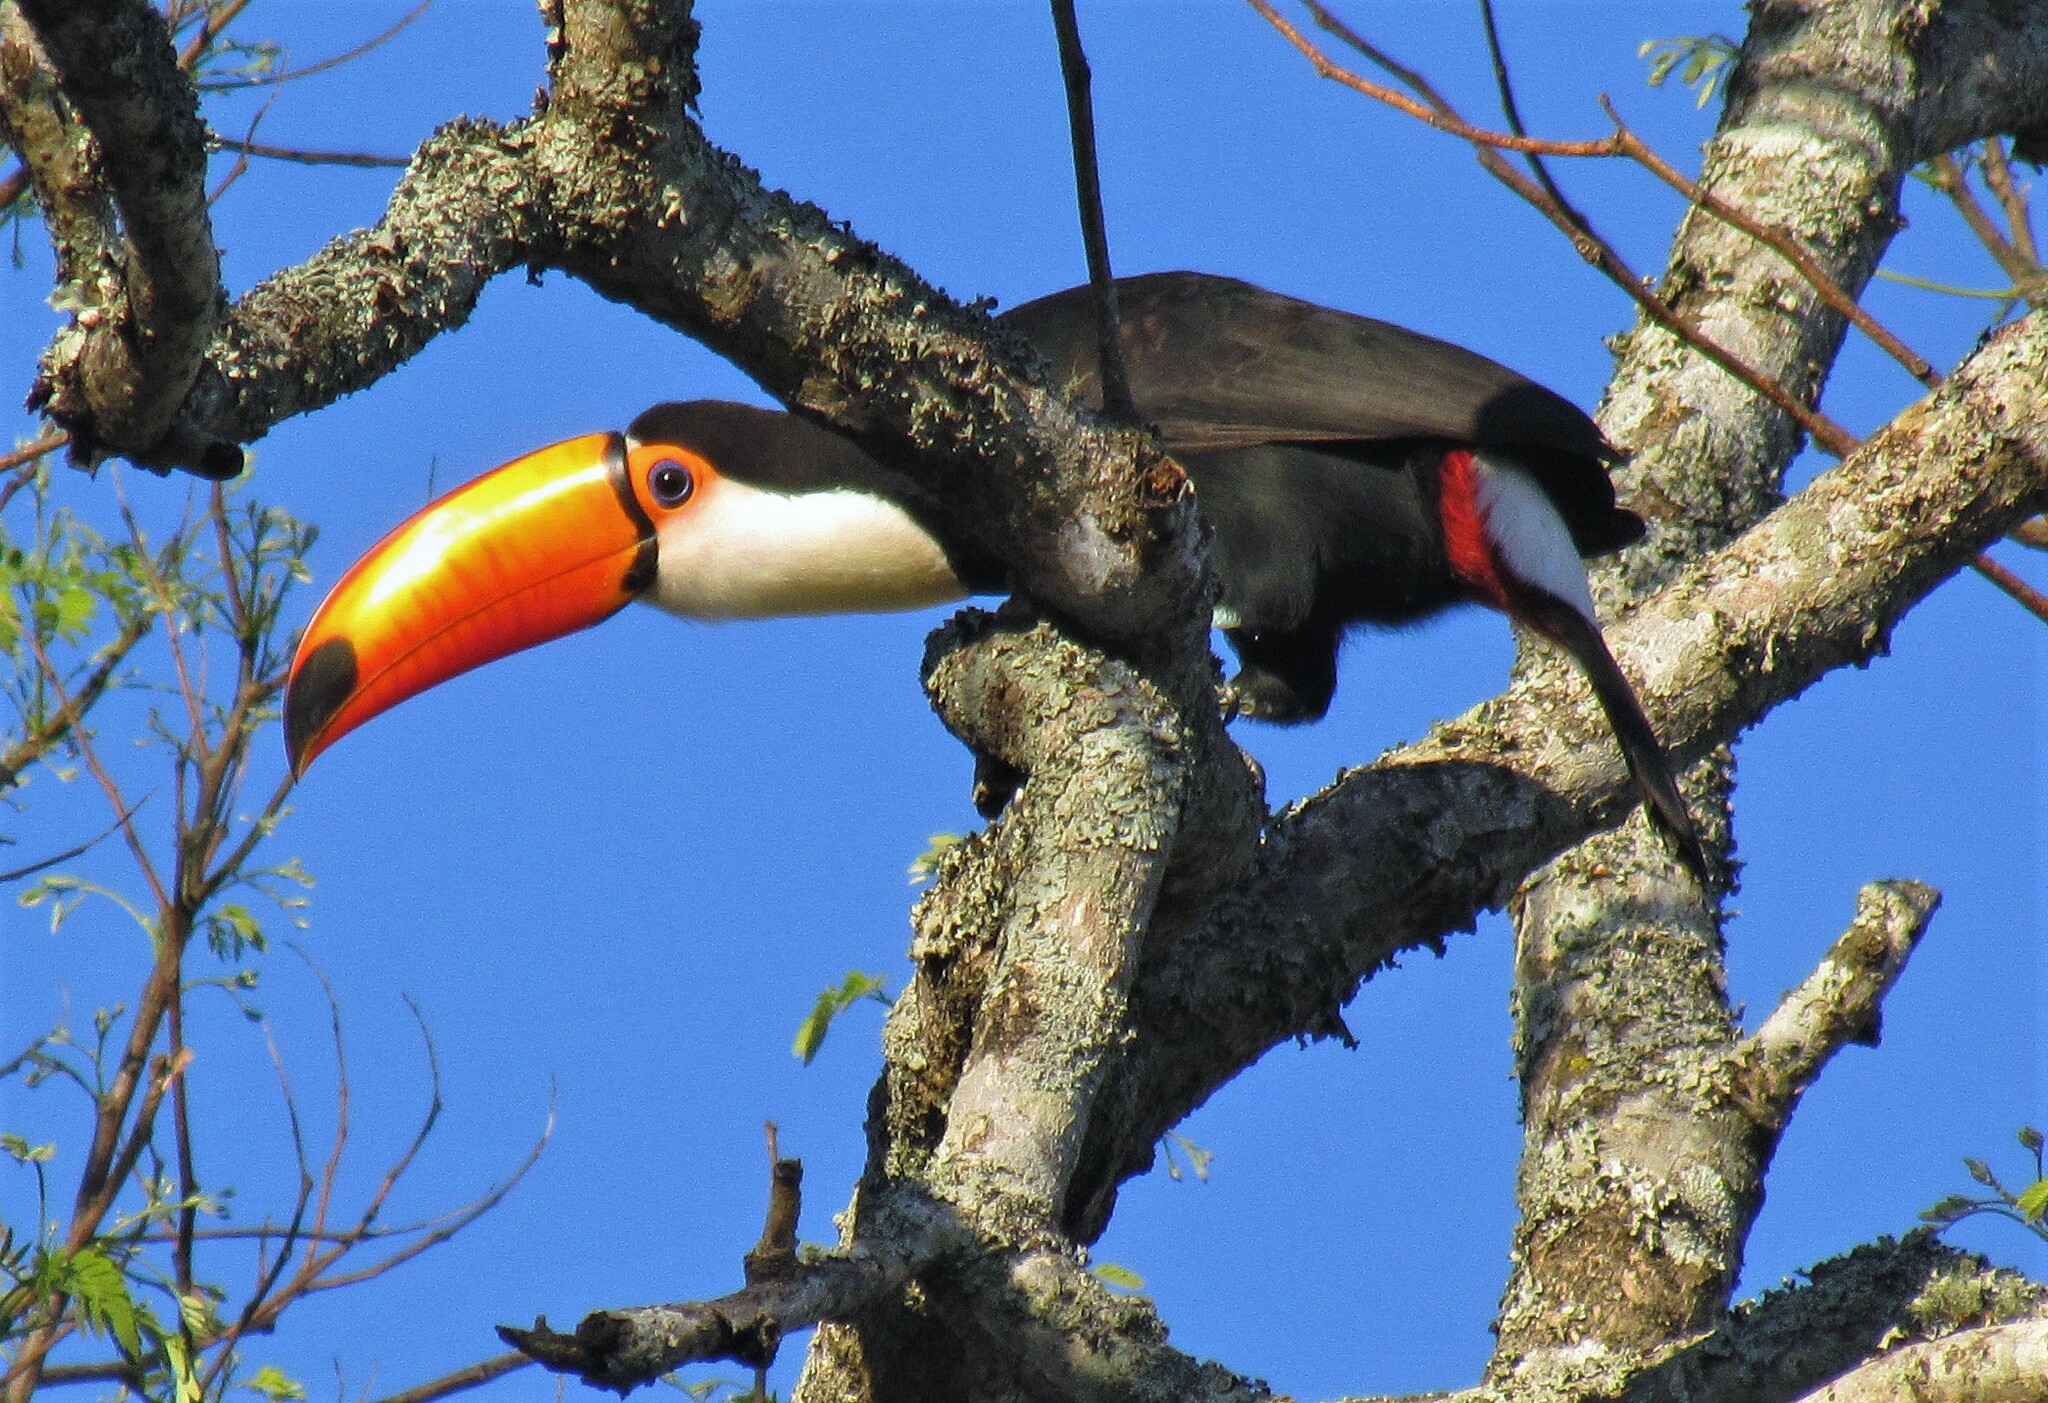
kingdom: Animalia
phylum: Chordata
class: Aves
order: Piciformes
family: Ramphastidae
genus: Ramphastos
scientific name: Ramphastos toco
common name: Toco toucan
